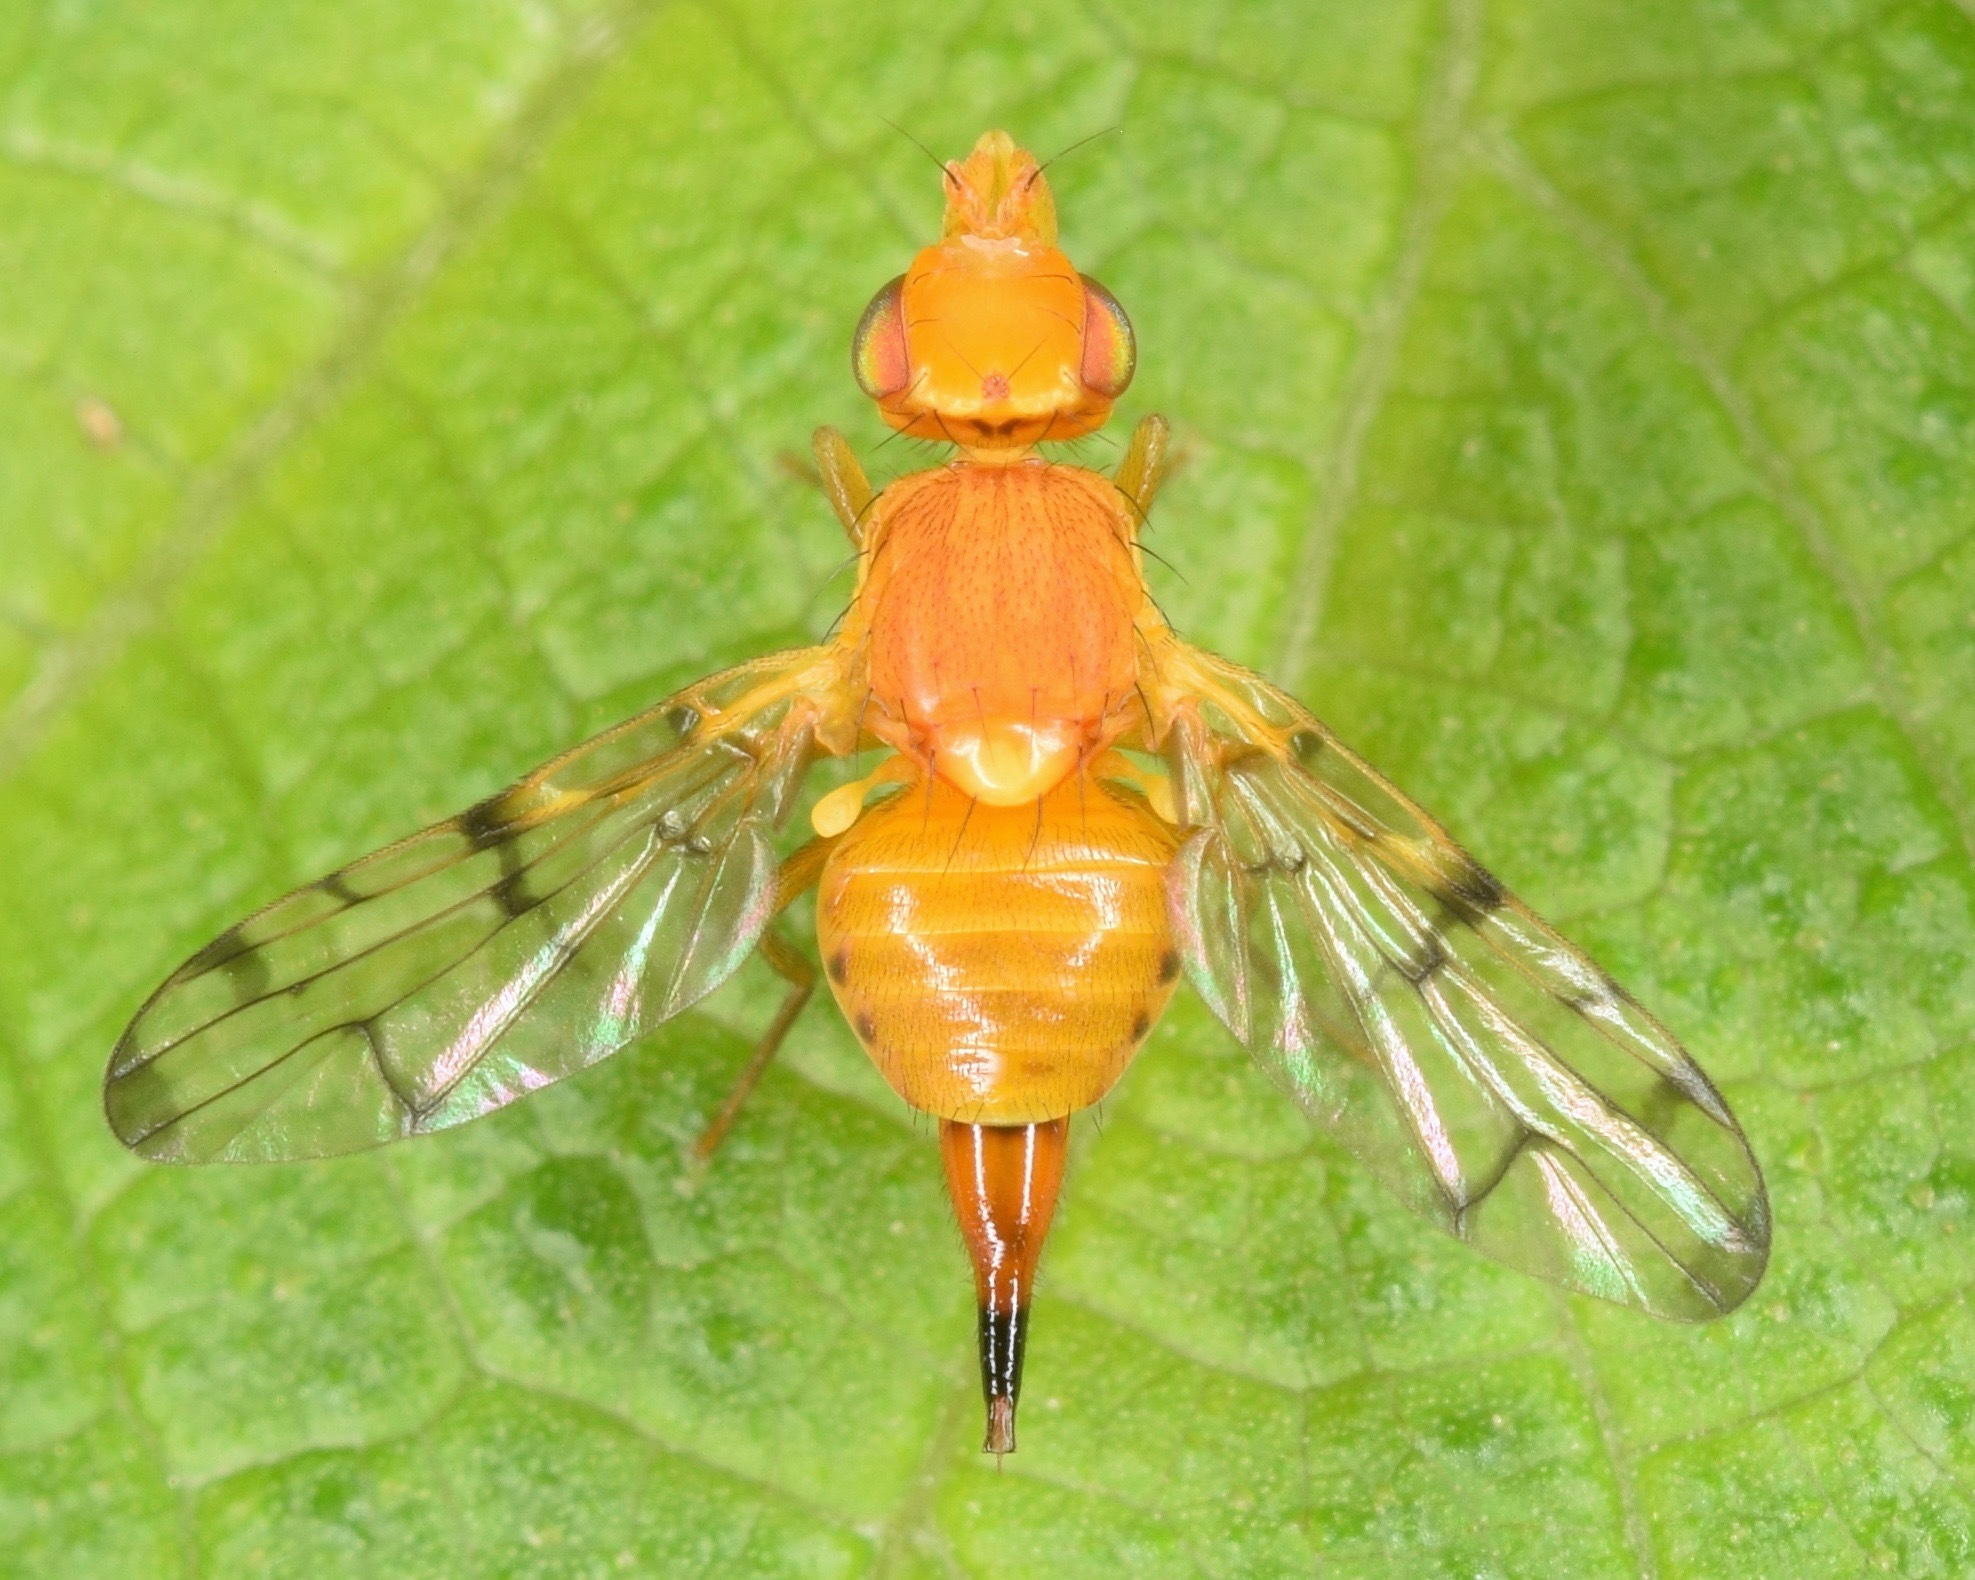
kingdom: Animalia
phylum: Arthropoda
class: Insecta
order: Diptera
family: Tephritidae
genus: Rhynencina
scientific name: Rhynencina longirostris
